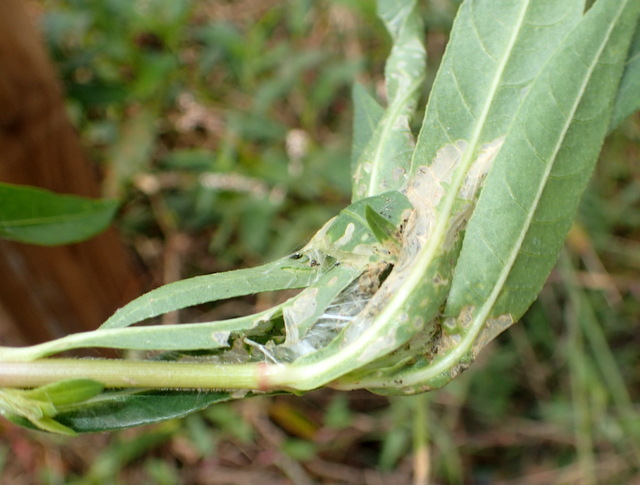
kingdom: Animalia
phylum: Arthropoda
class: Insecta
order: Lepidoptera
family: Crambidae
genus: Herpetogramma
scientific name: Herpetogramma bipunctalis
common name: Southern beet webworm
